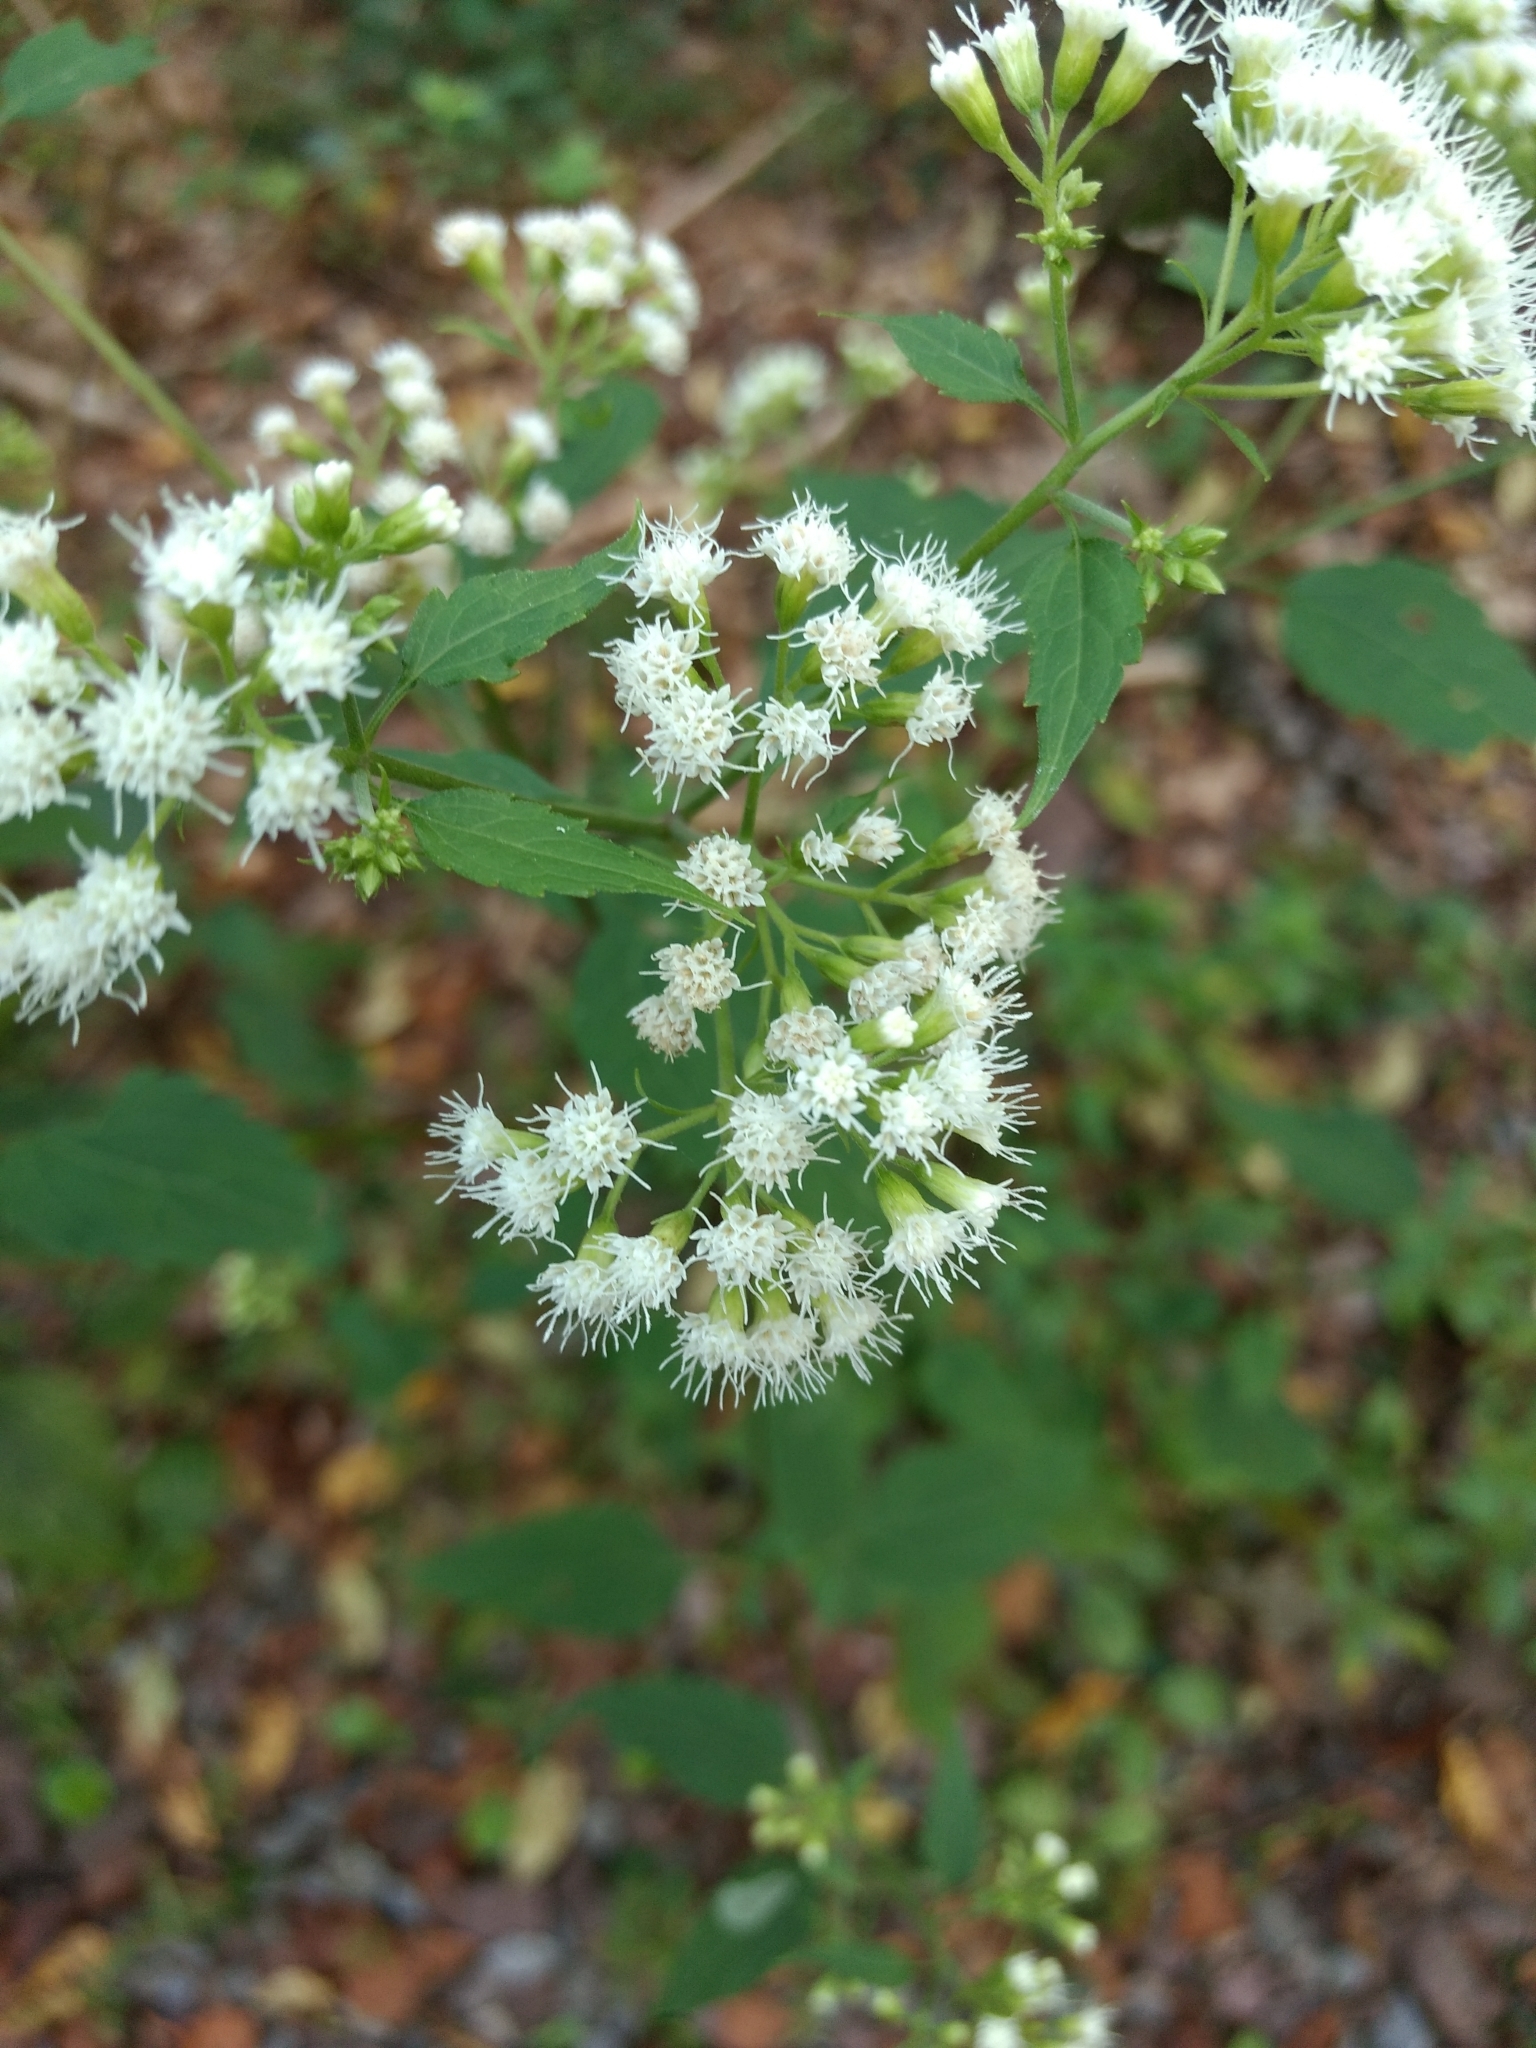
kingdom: Plantae
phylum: Tracheophyta
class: Magnoliopsida
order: Asterales
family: Asteraceae
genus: Ageratina
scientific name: Ageratina altissima
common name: White snakeroot
